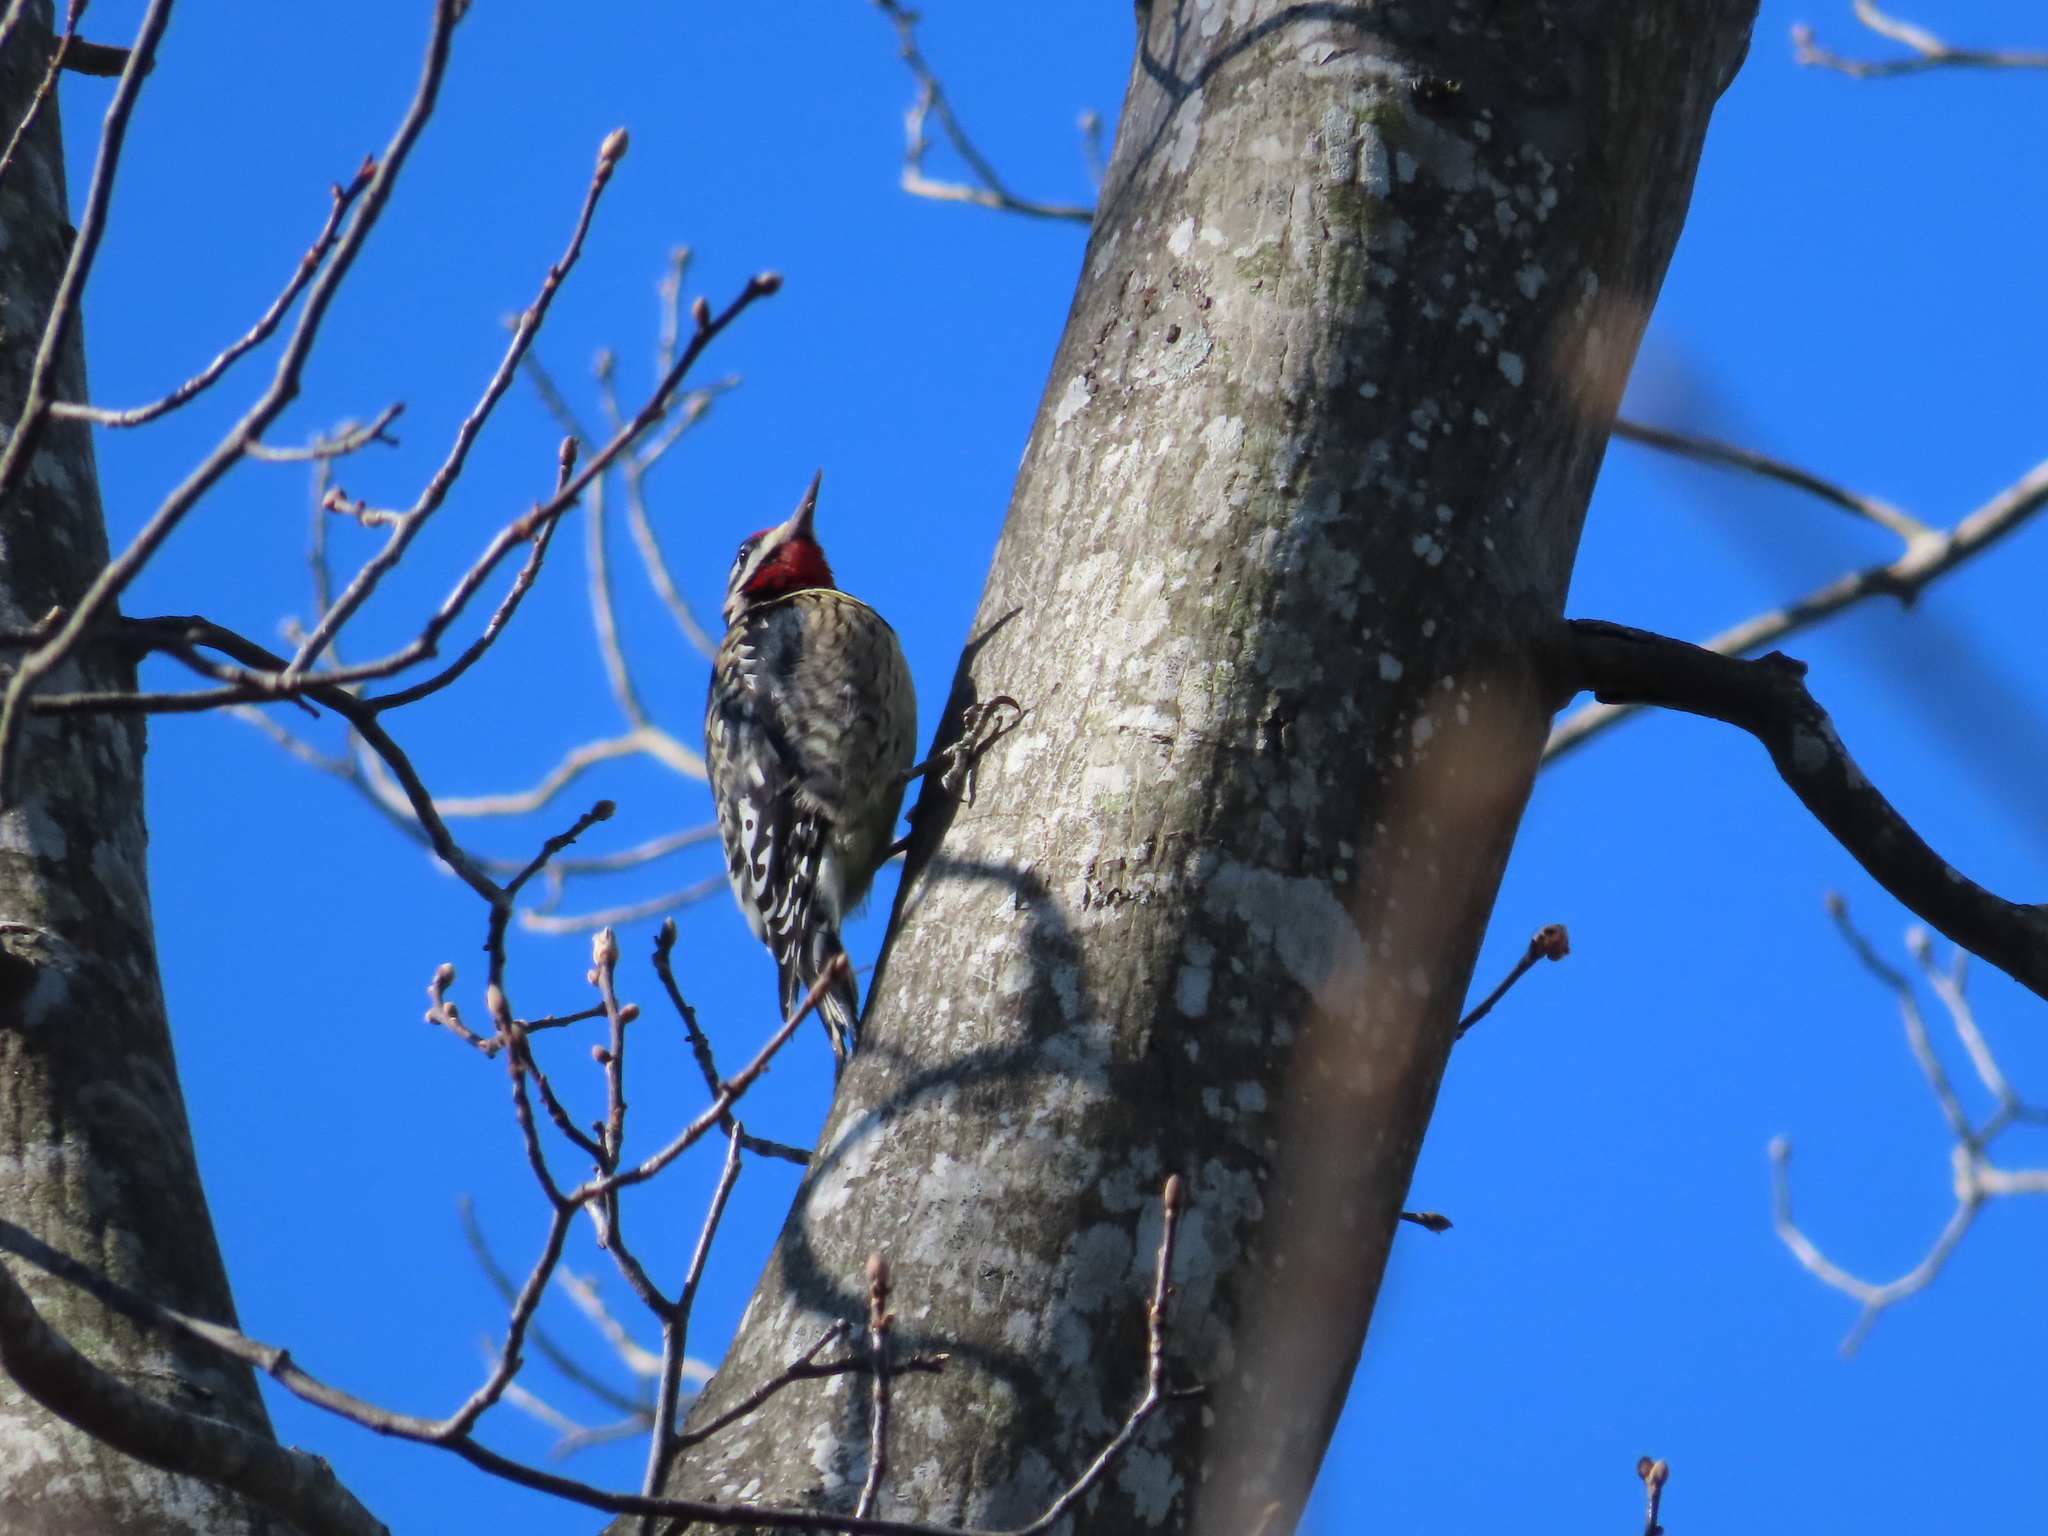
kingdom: Animalia
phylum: Chordata
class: Aves
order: Piciformes
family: Picidae
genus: Sphyrapicus
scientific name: Sphyrapicus varius
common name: Yellow-bellied sapsucker
